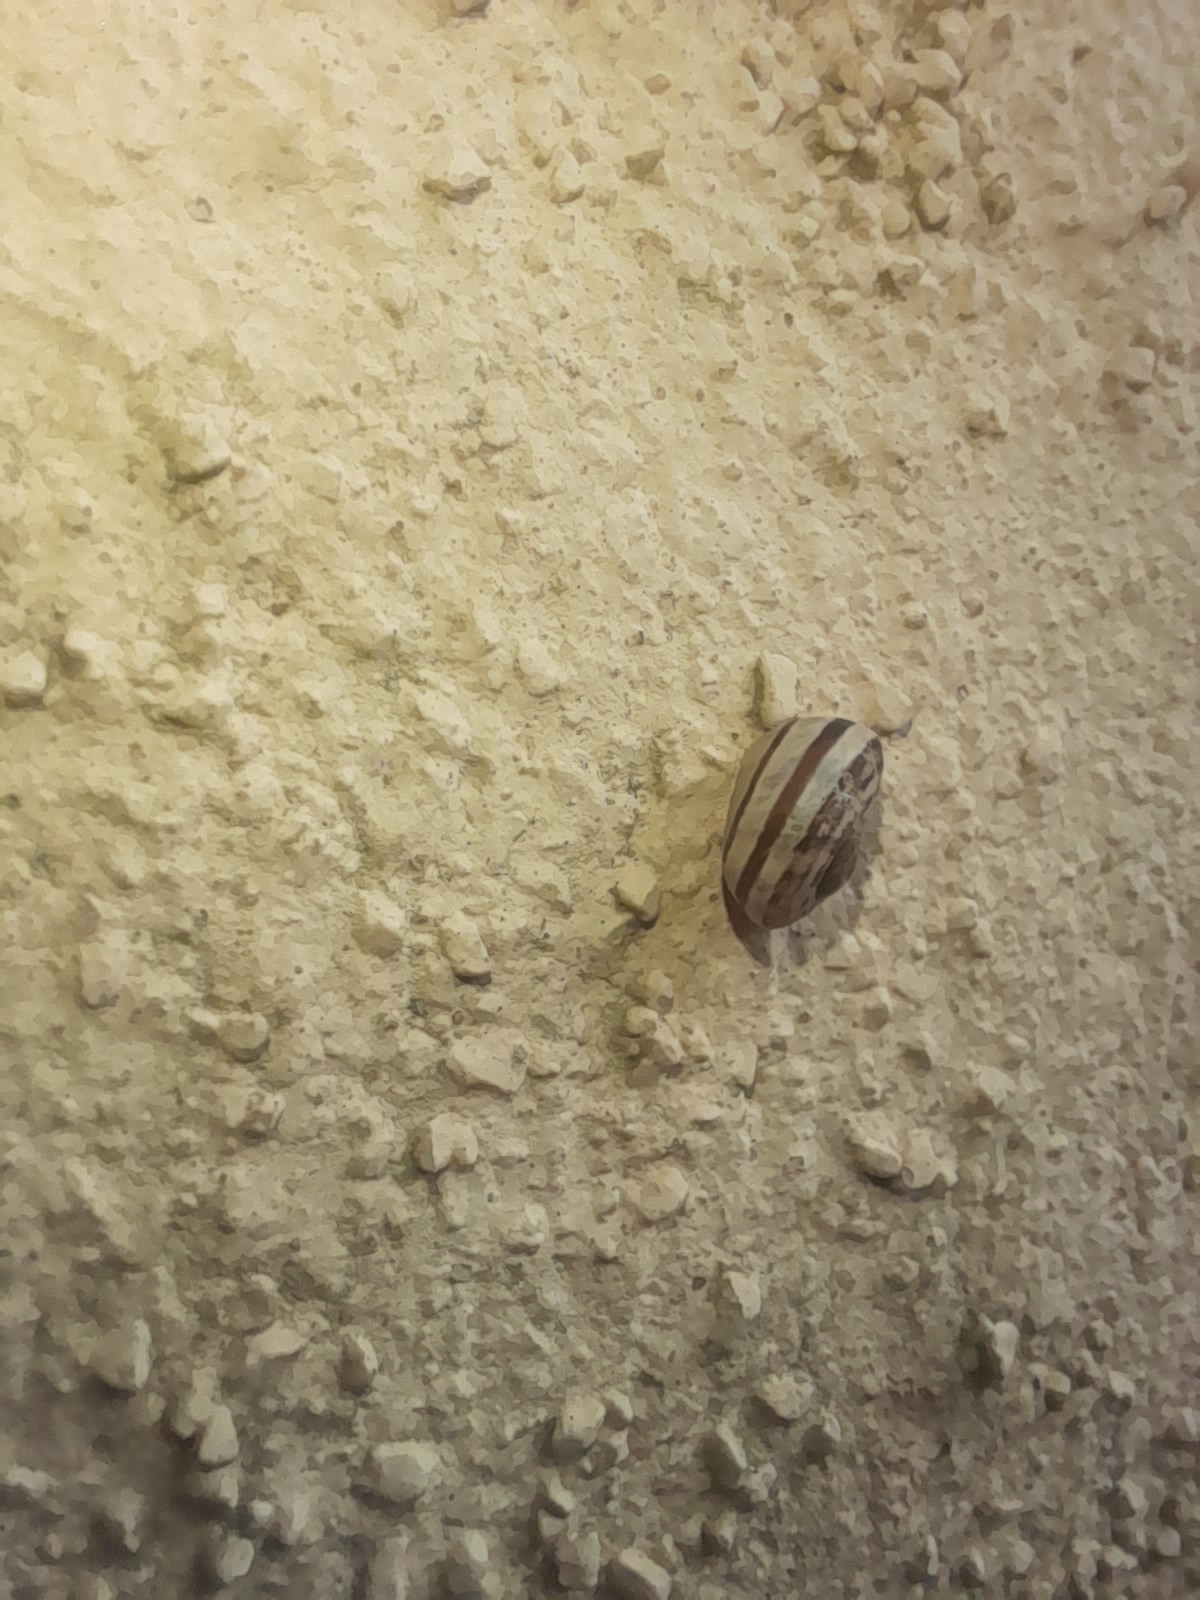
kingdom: Animalia
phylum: Mollusca
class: Gastropoda
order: Stylommatophora
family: Helicidae
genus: Eobania
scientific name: Eobania vermiculata
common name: Chocolateband snail
